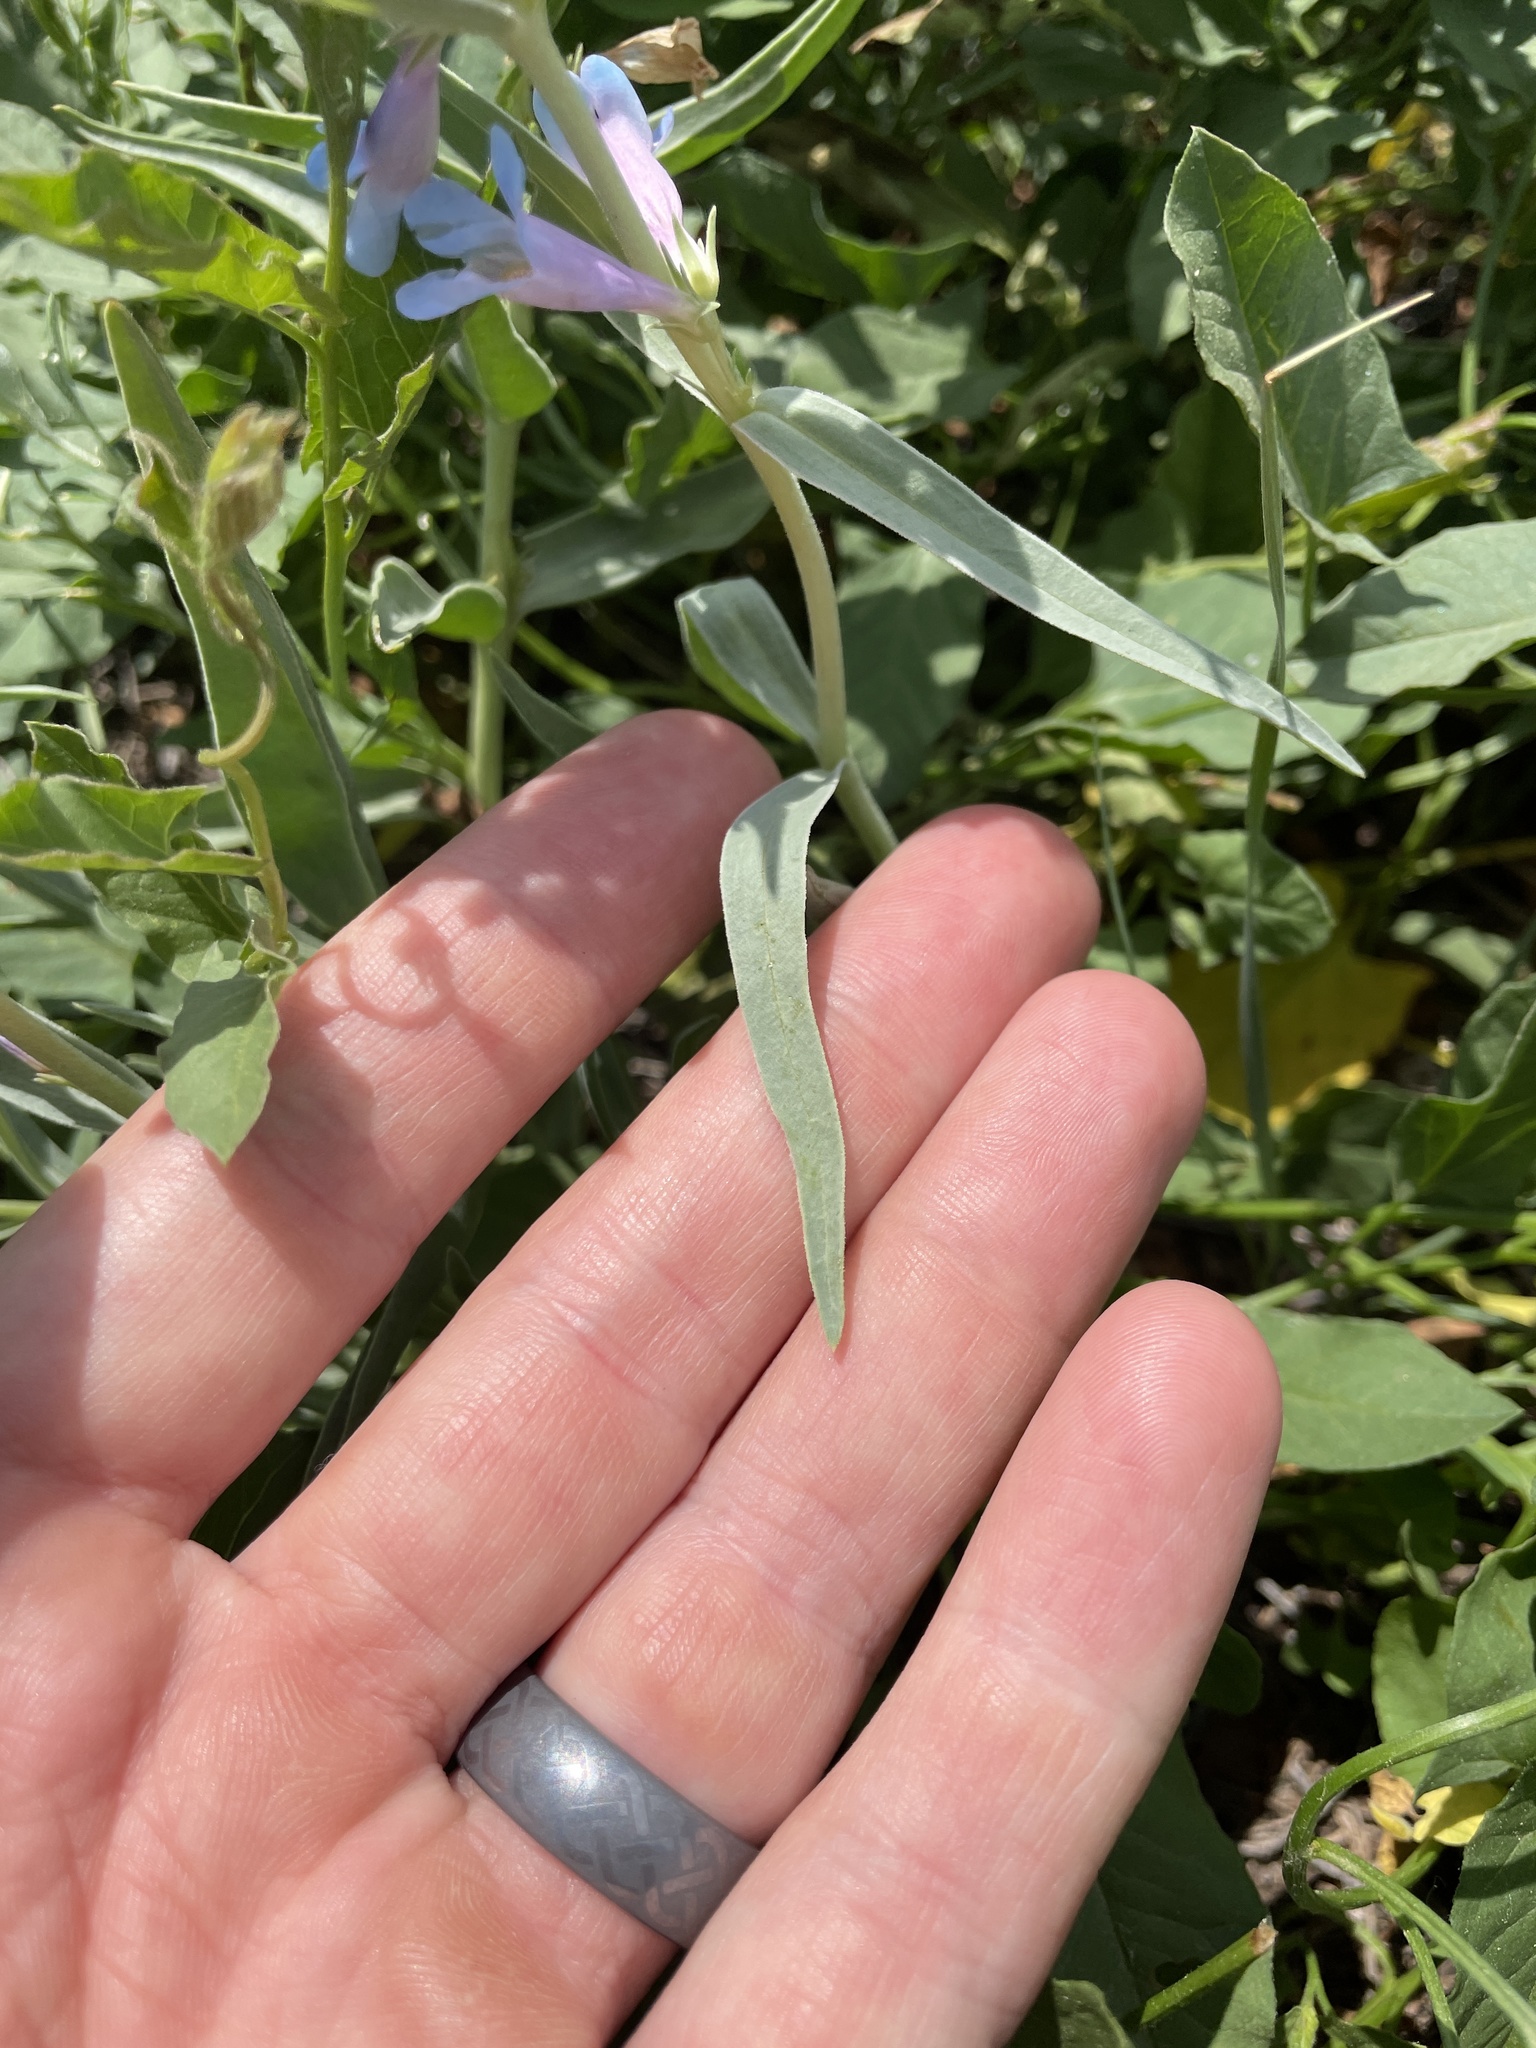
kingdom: Plantae
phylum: Tracheophyta
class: Magnoliopsida
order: Lamiales
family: Plantaginaceae
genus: Penstemon
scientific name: Penstemon angustifolius
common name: Narrow beardtongue
